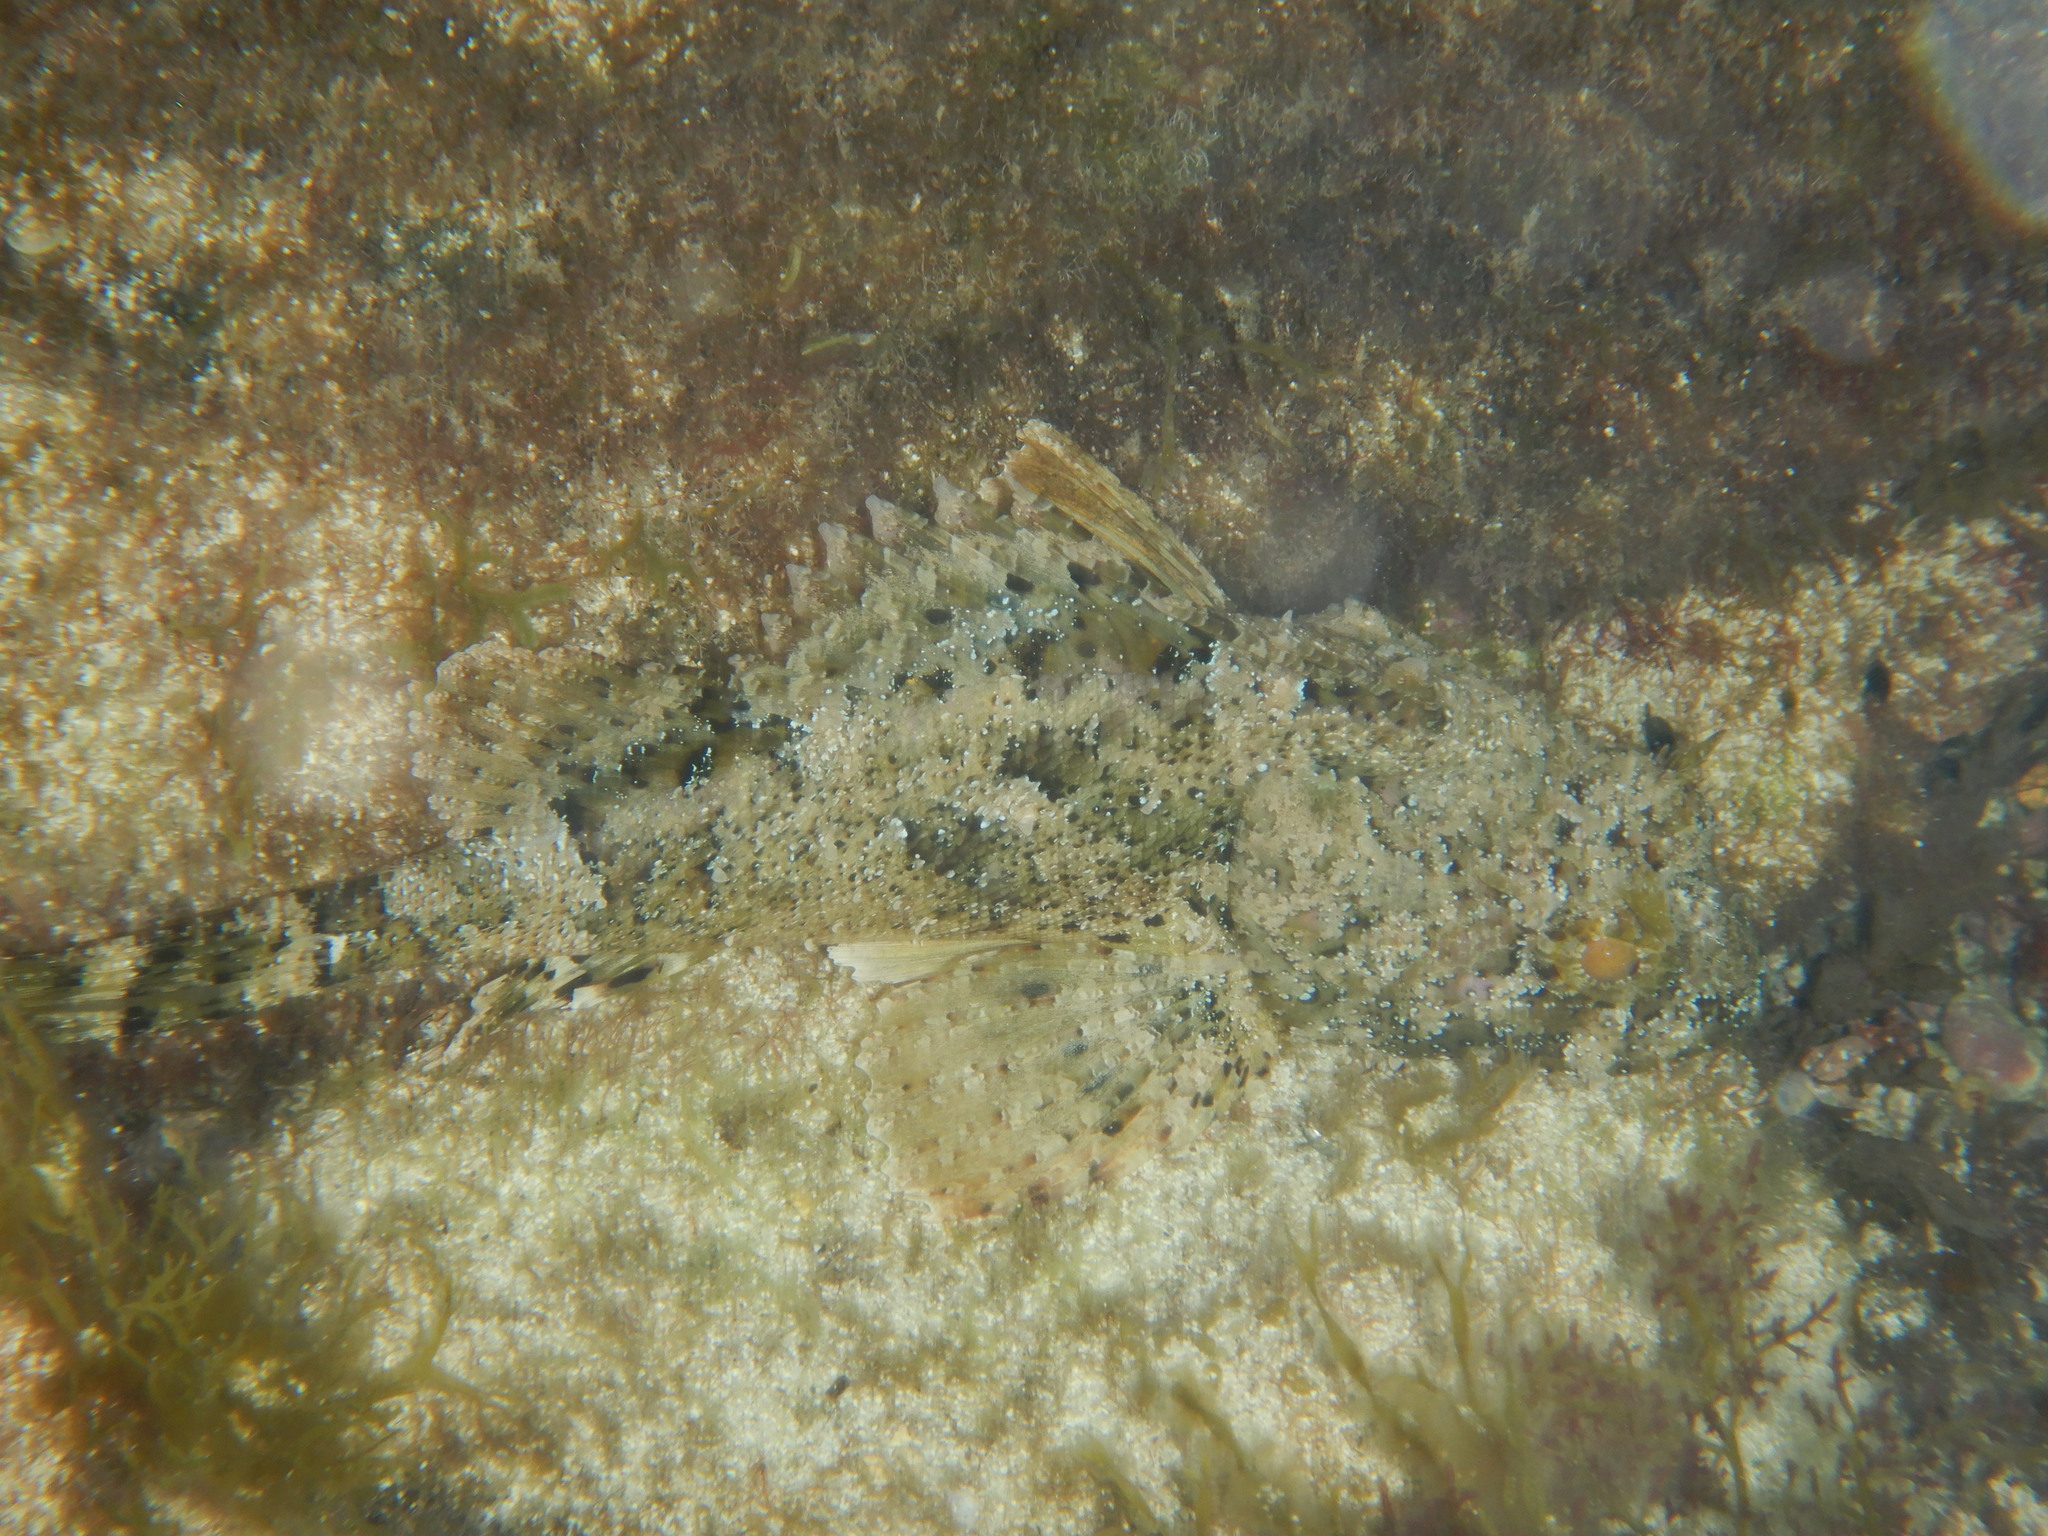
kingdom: Animalia
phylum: Chordata
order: Scorpaeniformes
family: Scorpaenidae
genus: Scorpaena
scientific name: Scorpaena porcus
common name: Black scorpionfish
